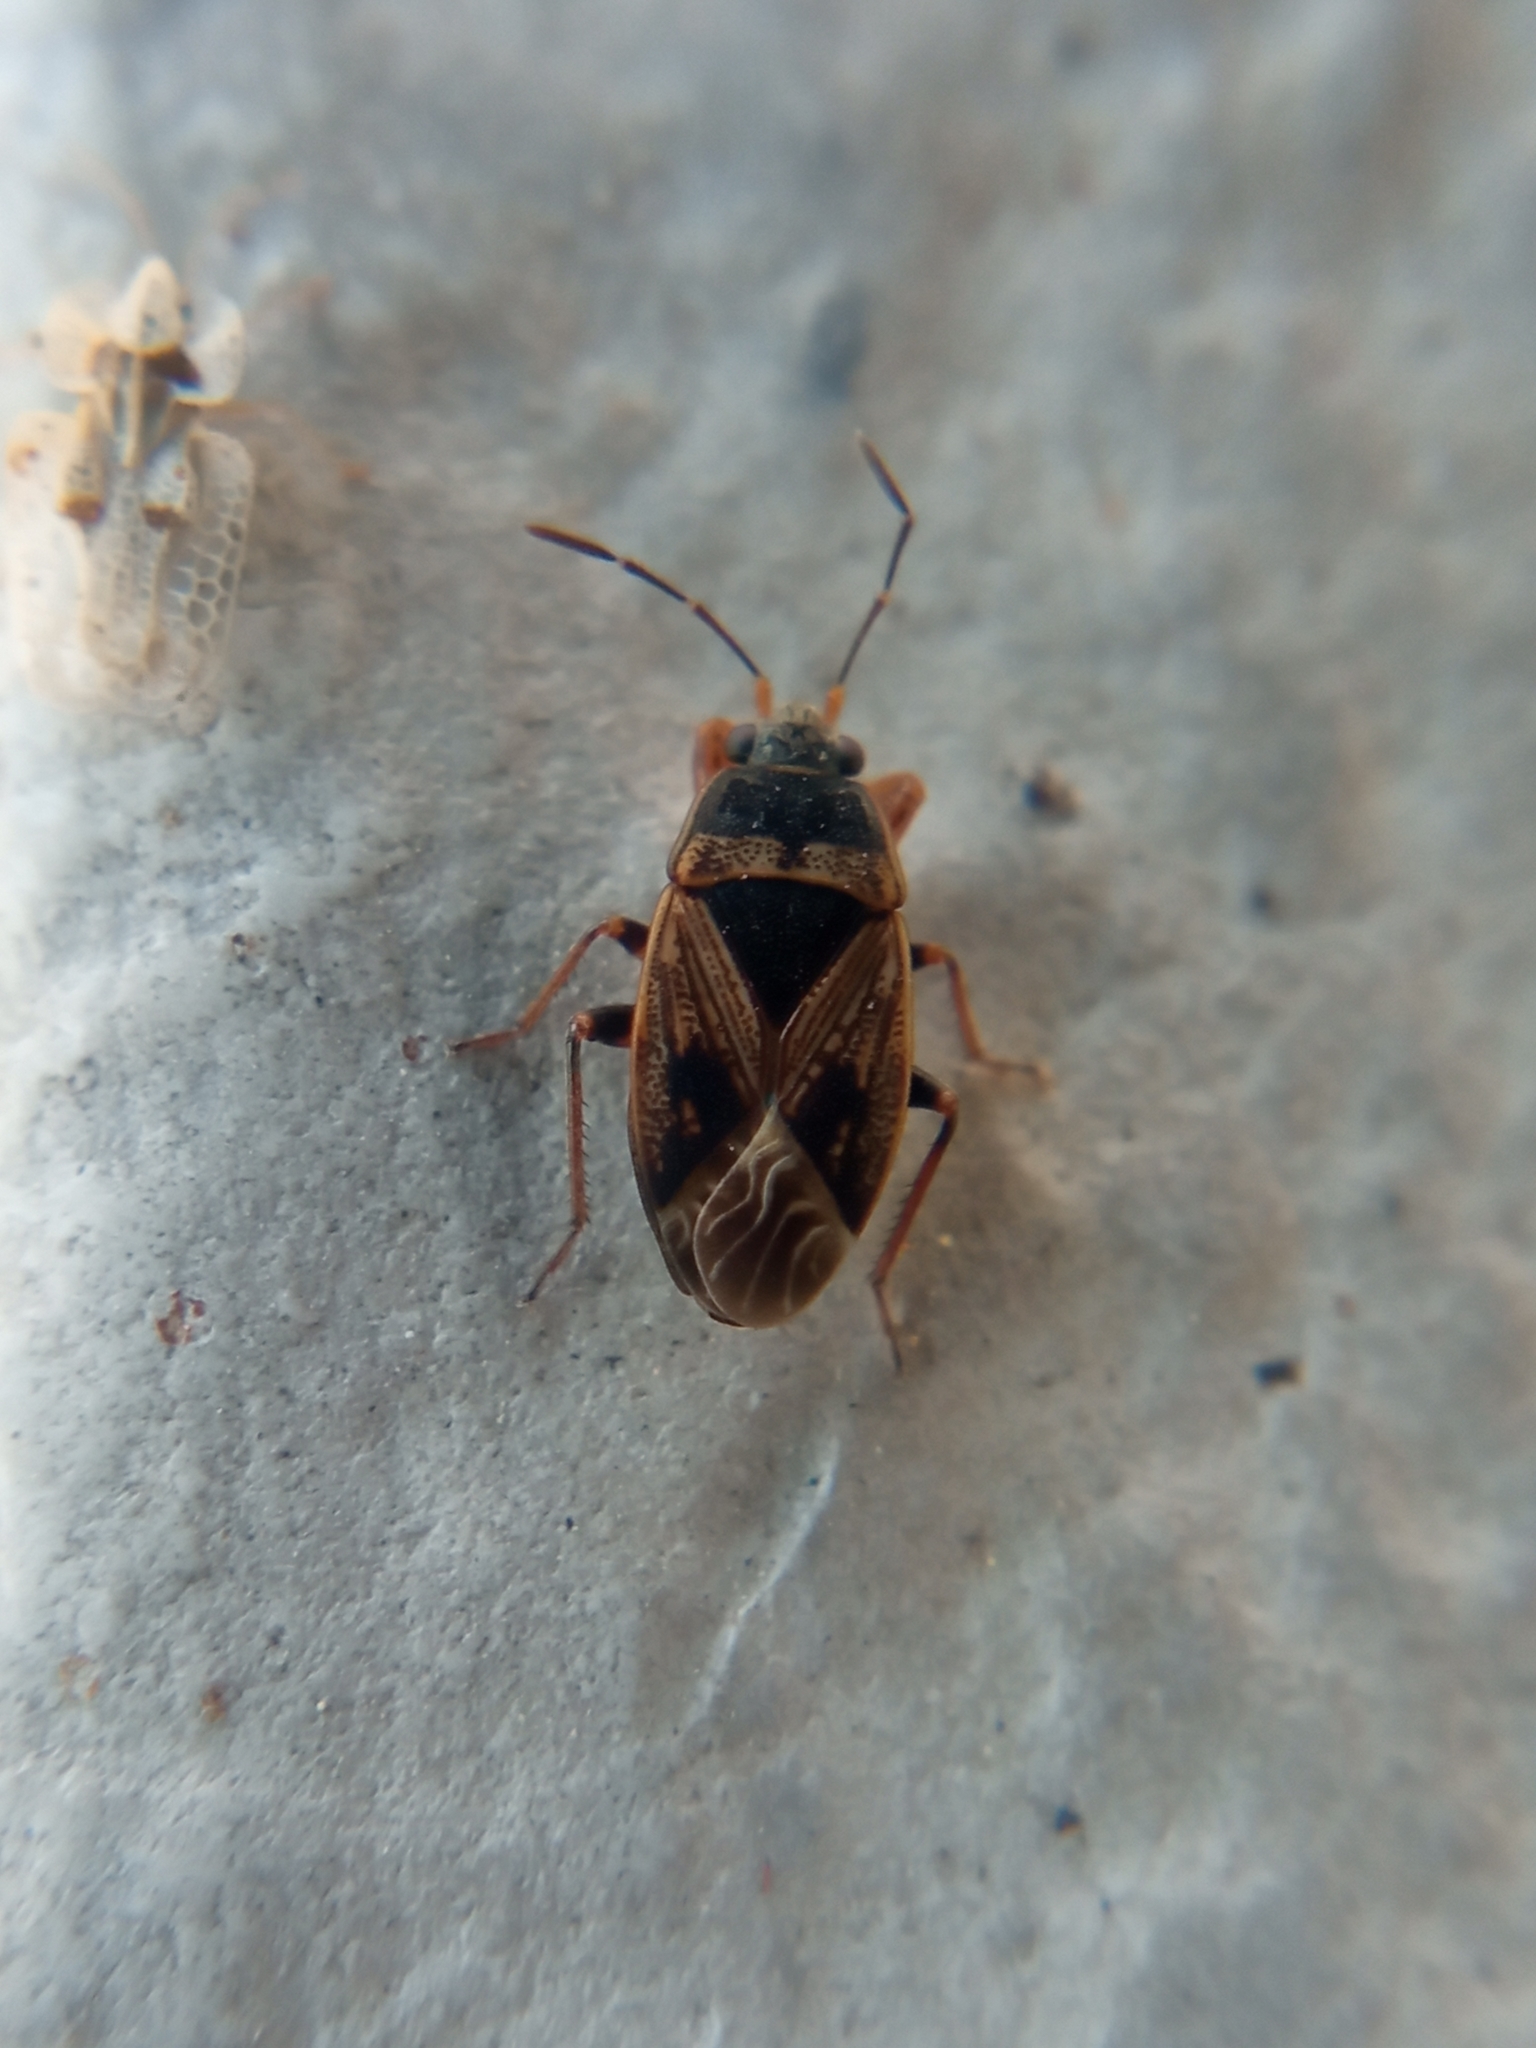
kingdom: Animalia
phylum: Arthropoda
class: Insecta
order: Hemiptera
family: Rhyparochromidae
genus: Trapezonotus
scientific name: Trapezonotus dispar
